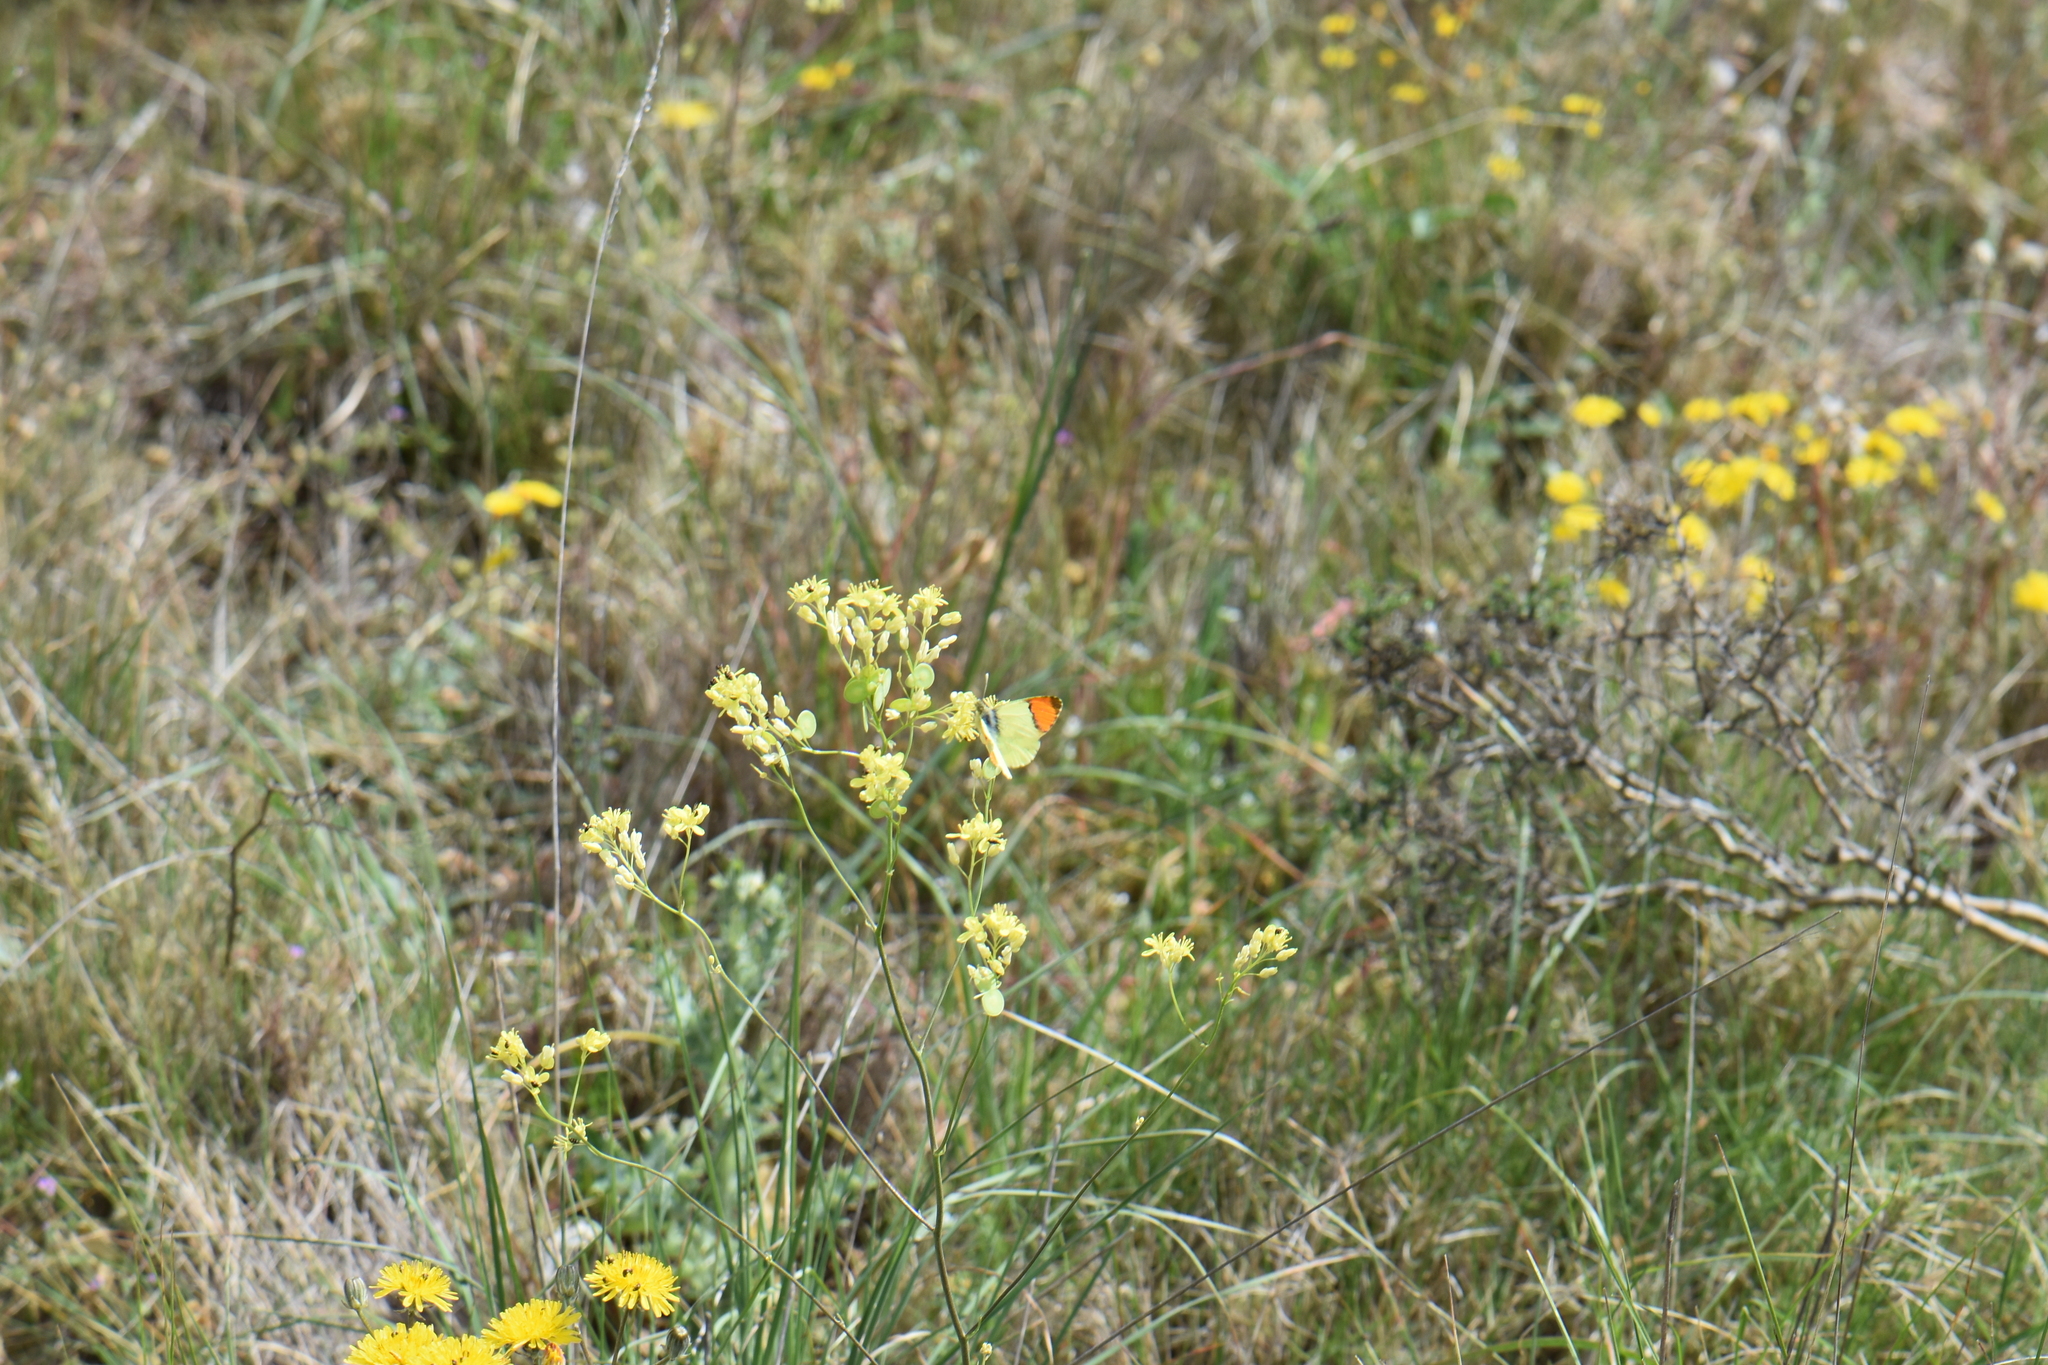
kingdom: Animalia
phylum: Arthropoda
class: Insecta
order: Lepidoptera
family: Pieridae
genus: Anthocharis
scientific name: Anthocharis euphenoides
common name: Provence orange-tip
